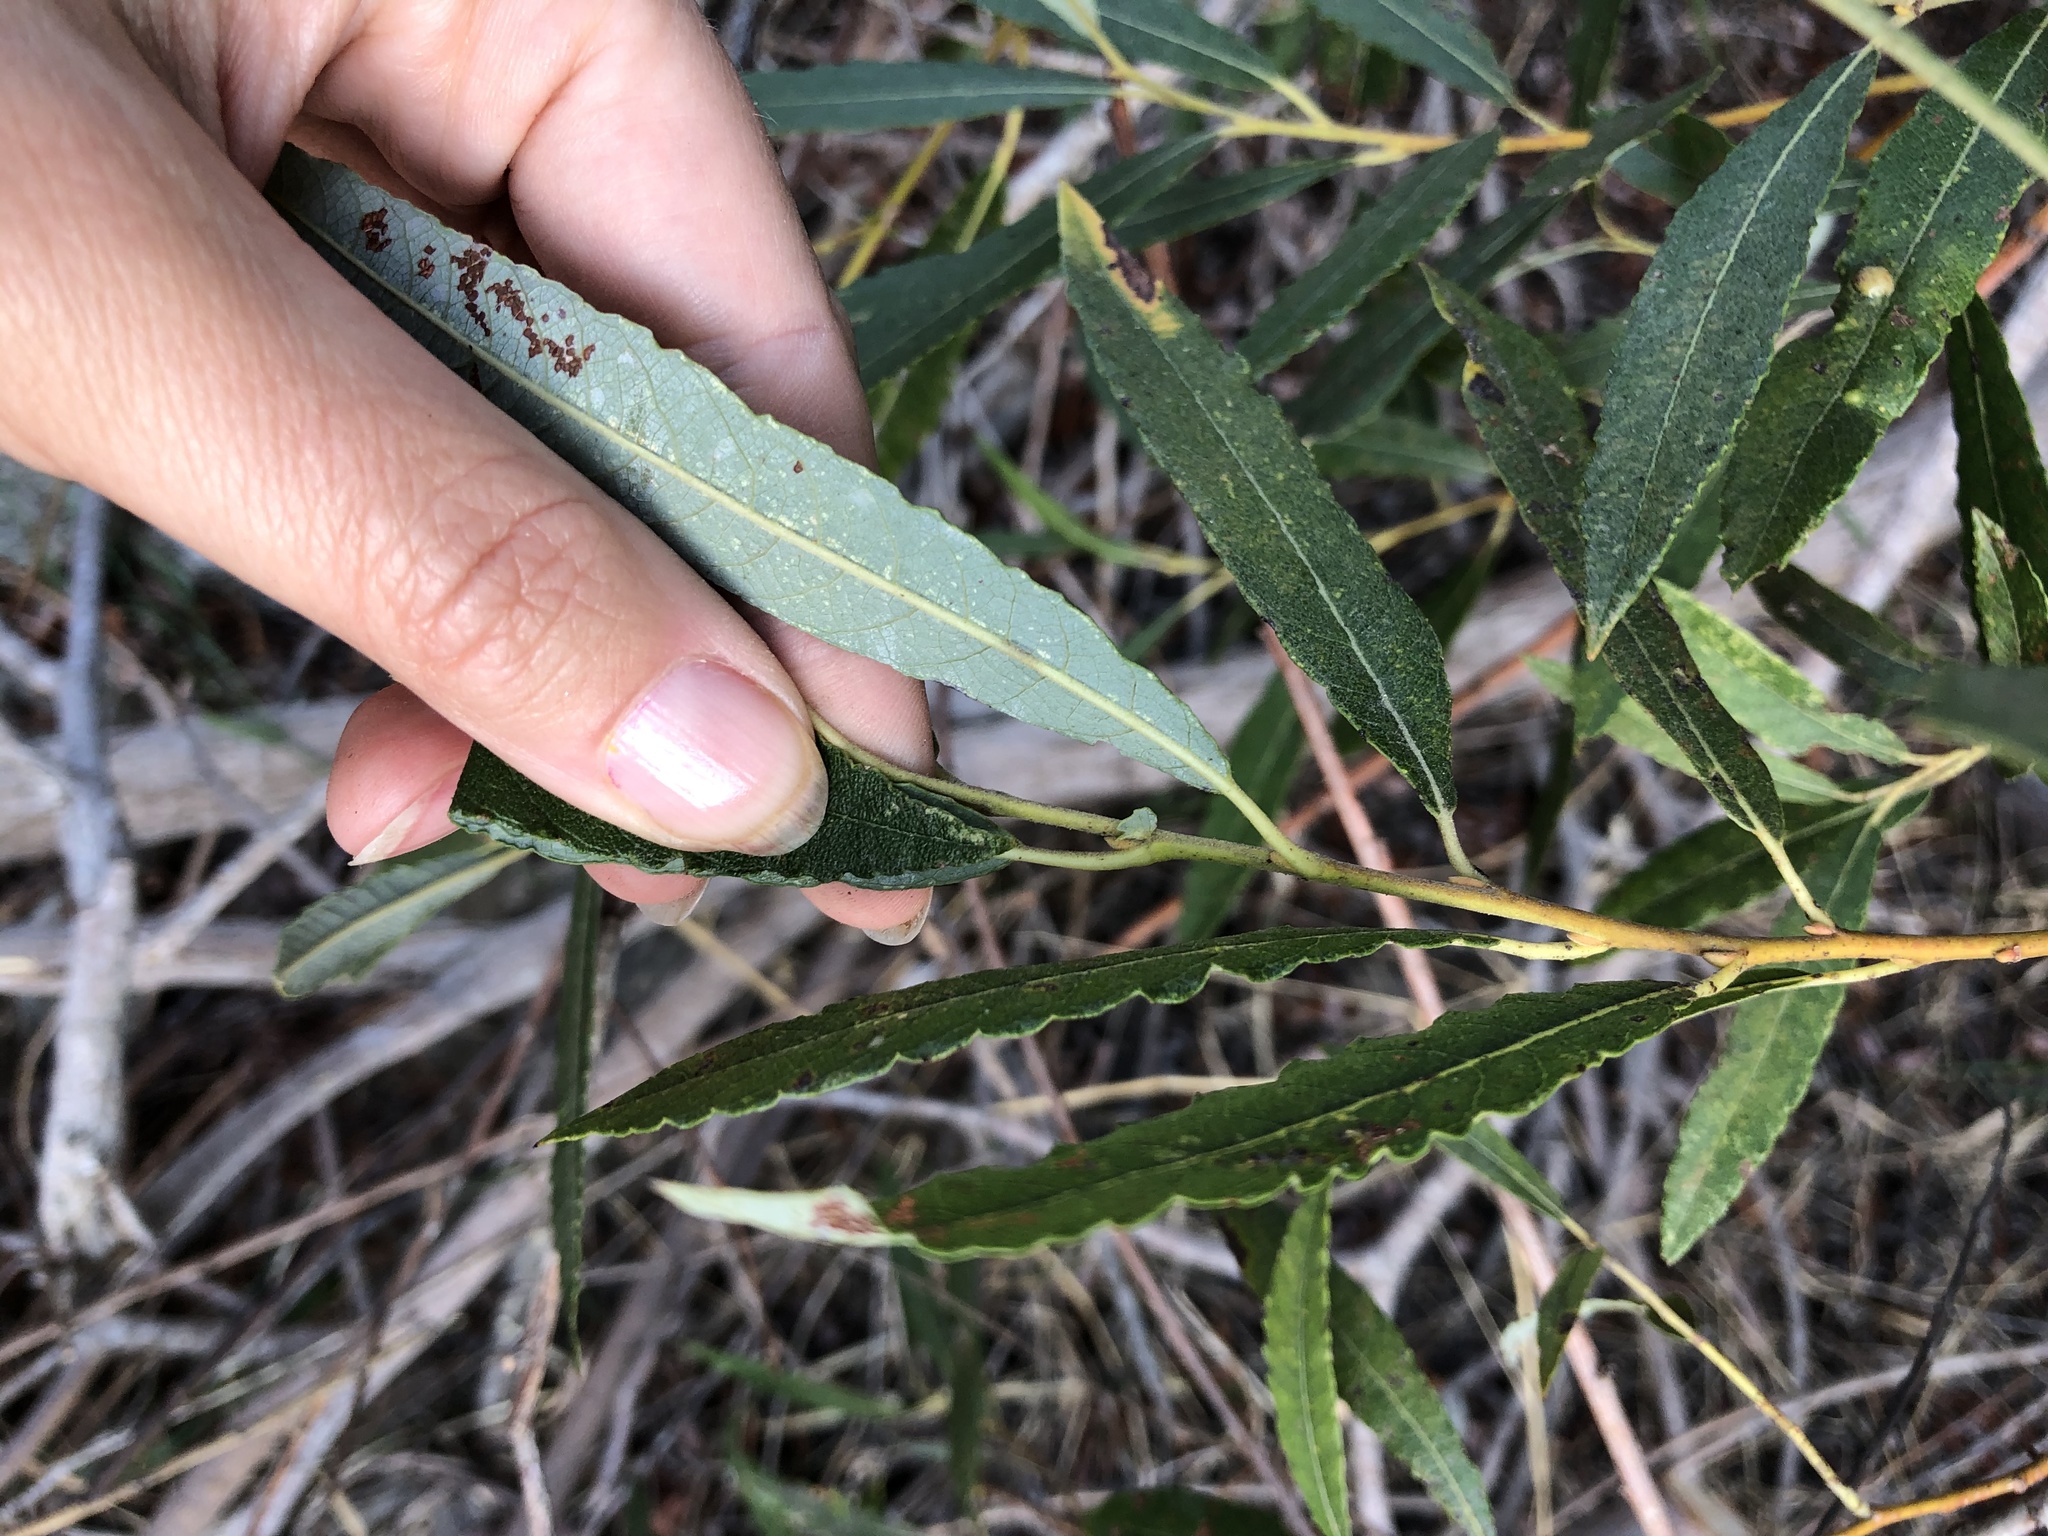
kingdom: Plantae
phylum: Tracheophyta
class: Magnoliopsida
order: Malpighiales
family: Salicaceae
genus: Salix
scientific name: Salix lasiolepis
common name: Arroyo willow
